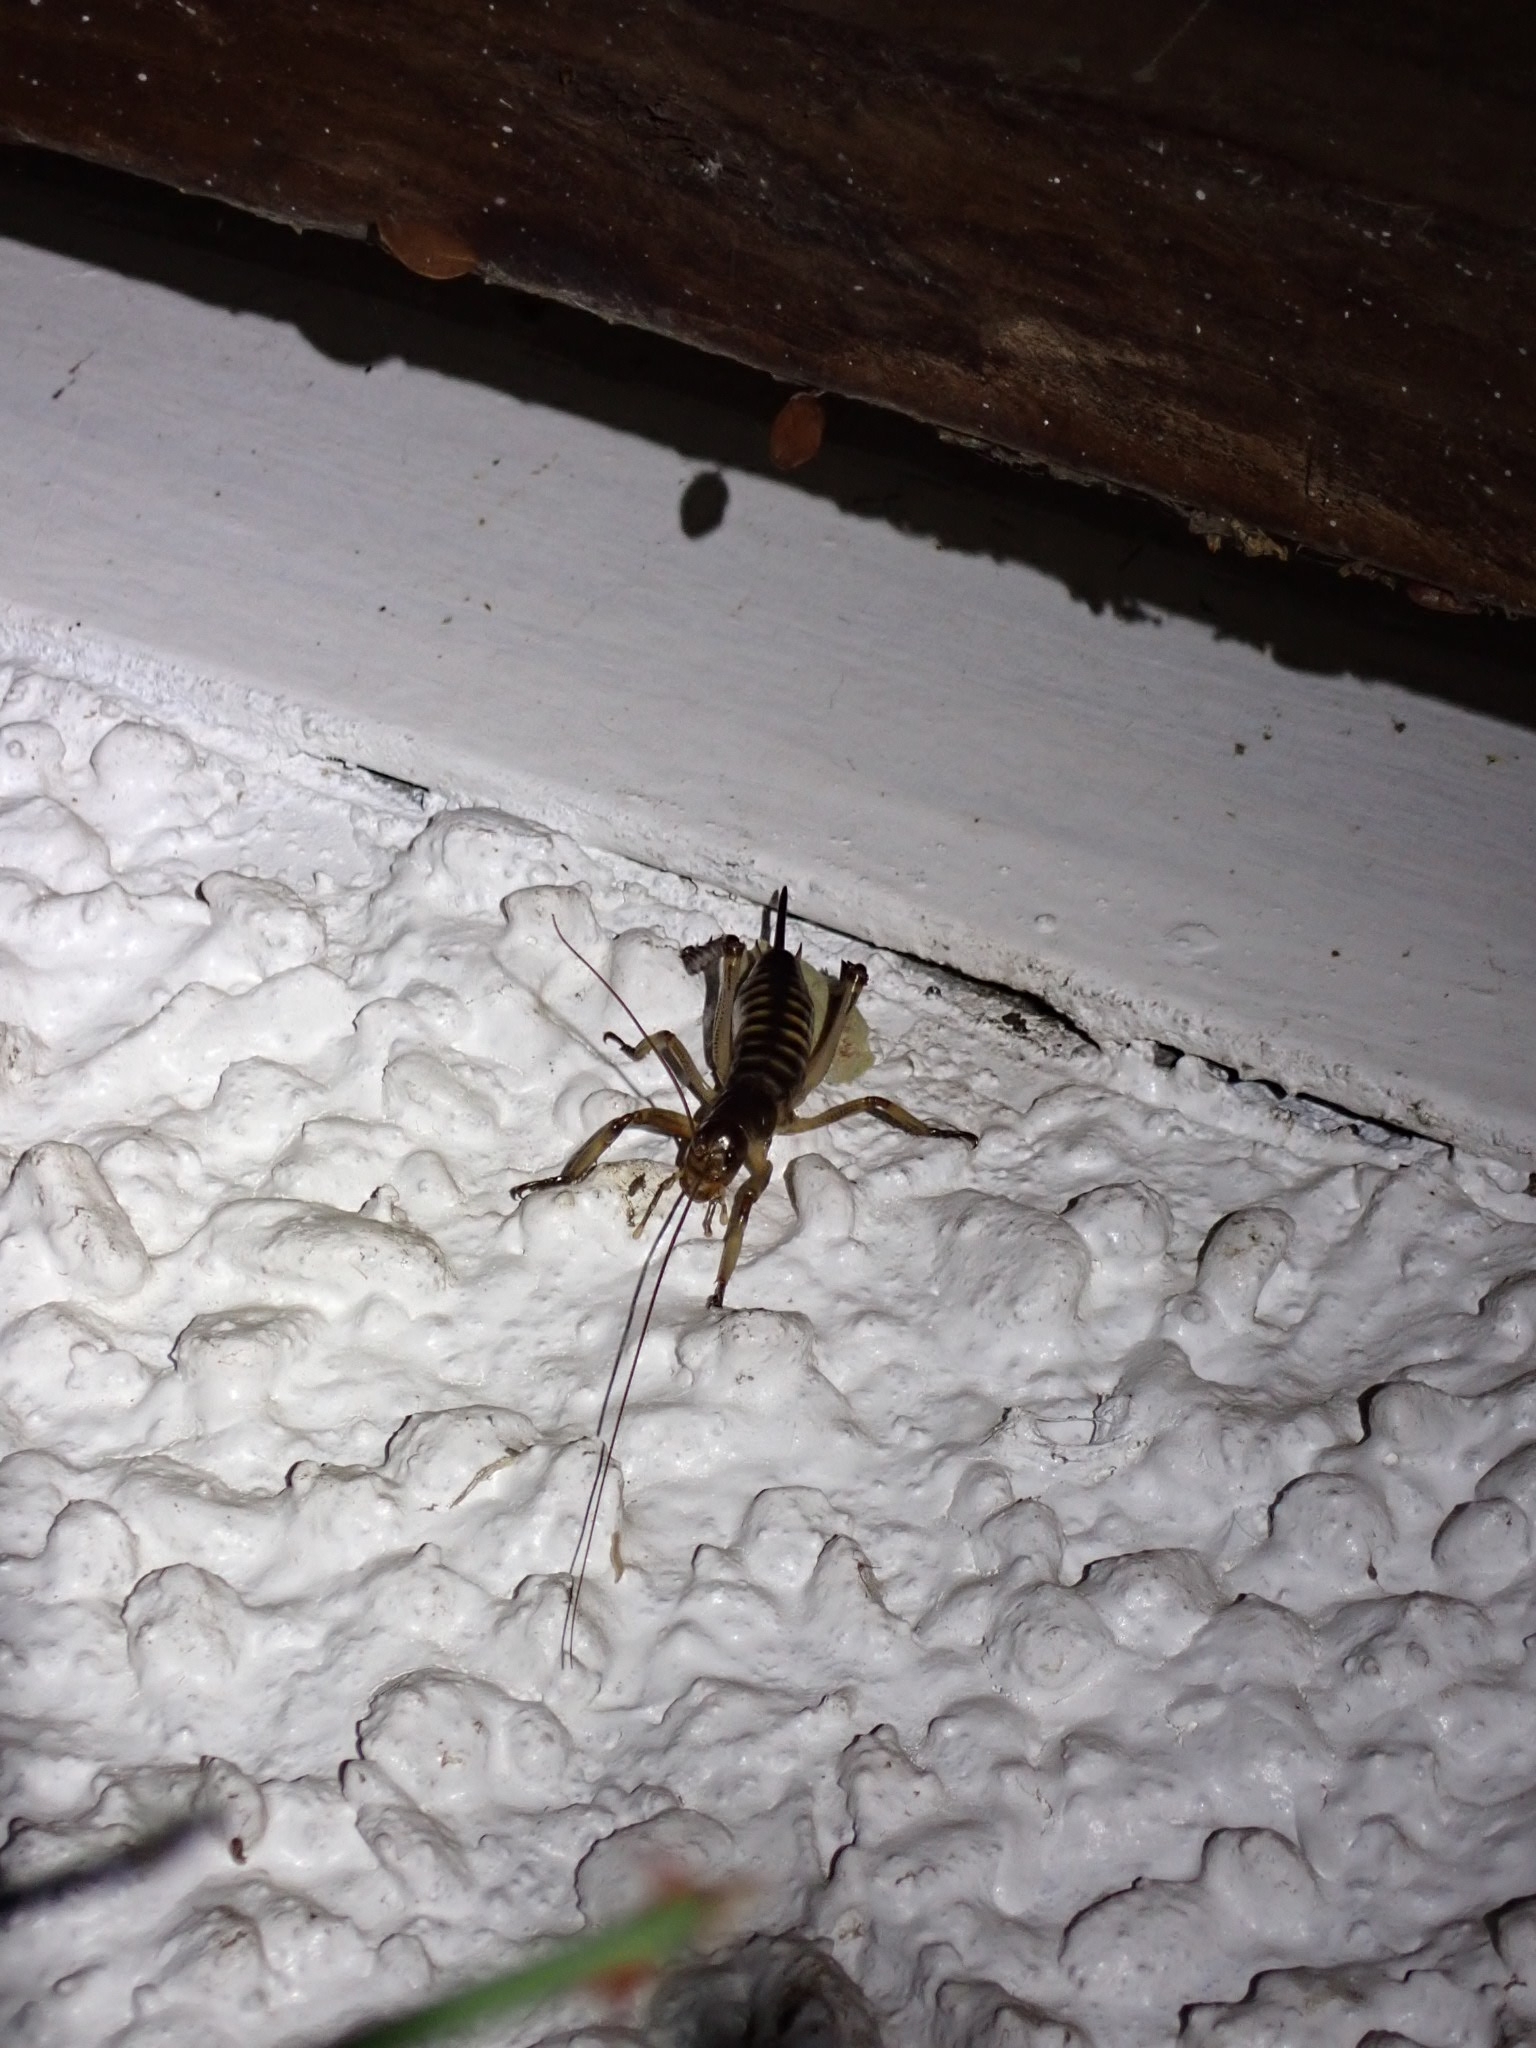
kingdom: Animalia
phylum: Arthropoda
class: Insecta
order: Orthoptera
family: Anostostomatidae
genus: Hemideina
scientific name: Hemideina crassidens
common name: Wellington tree weta
